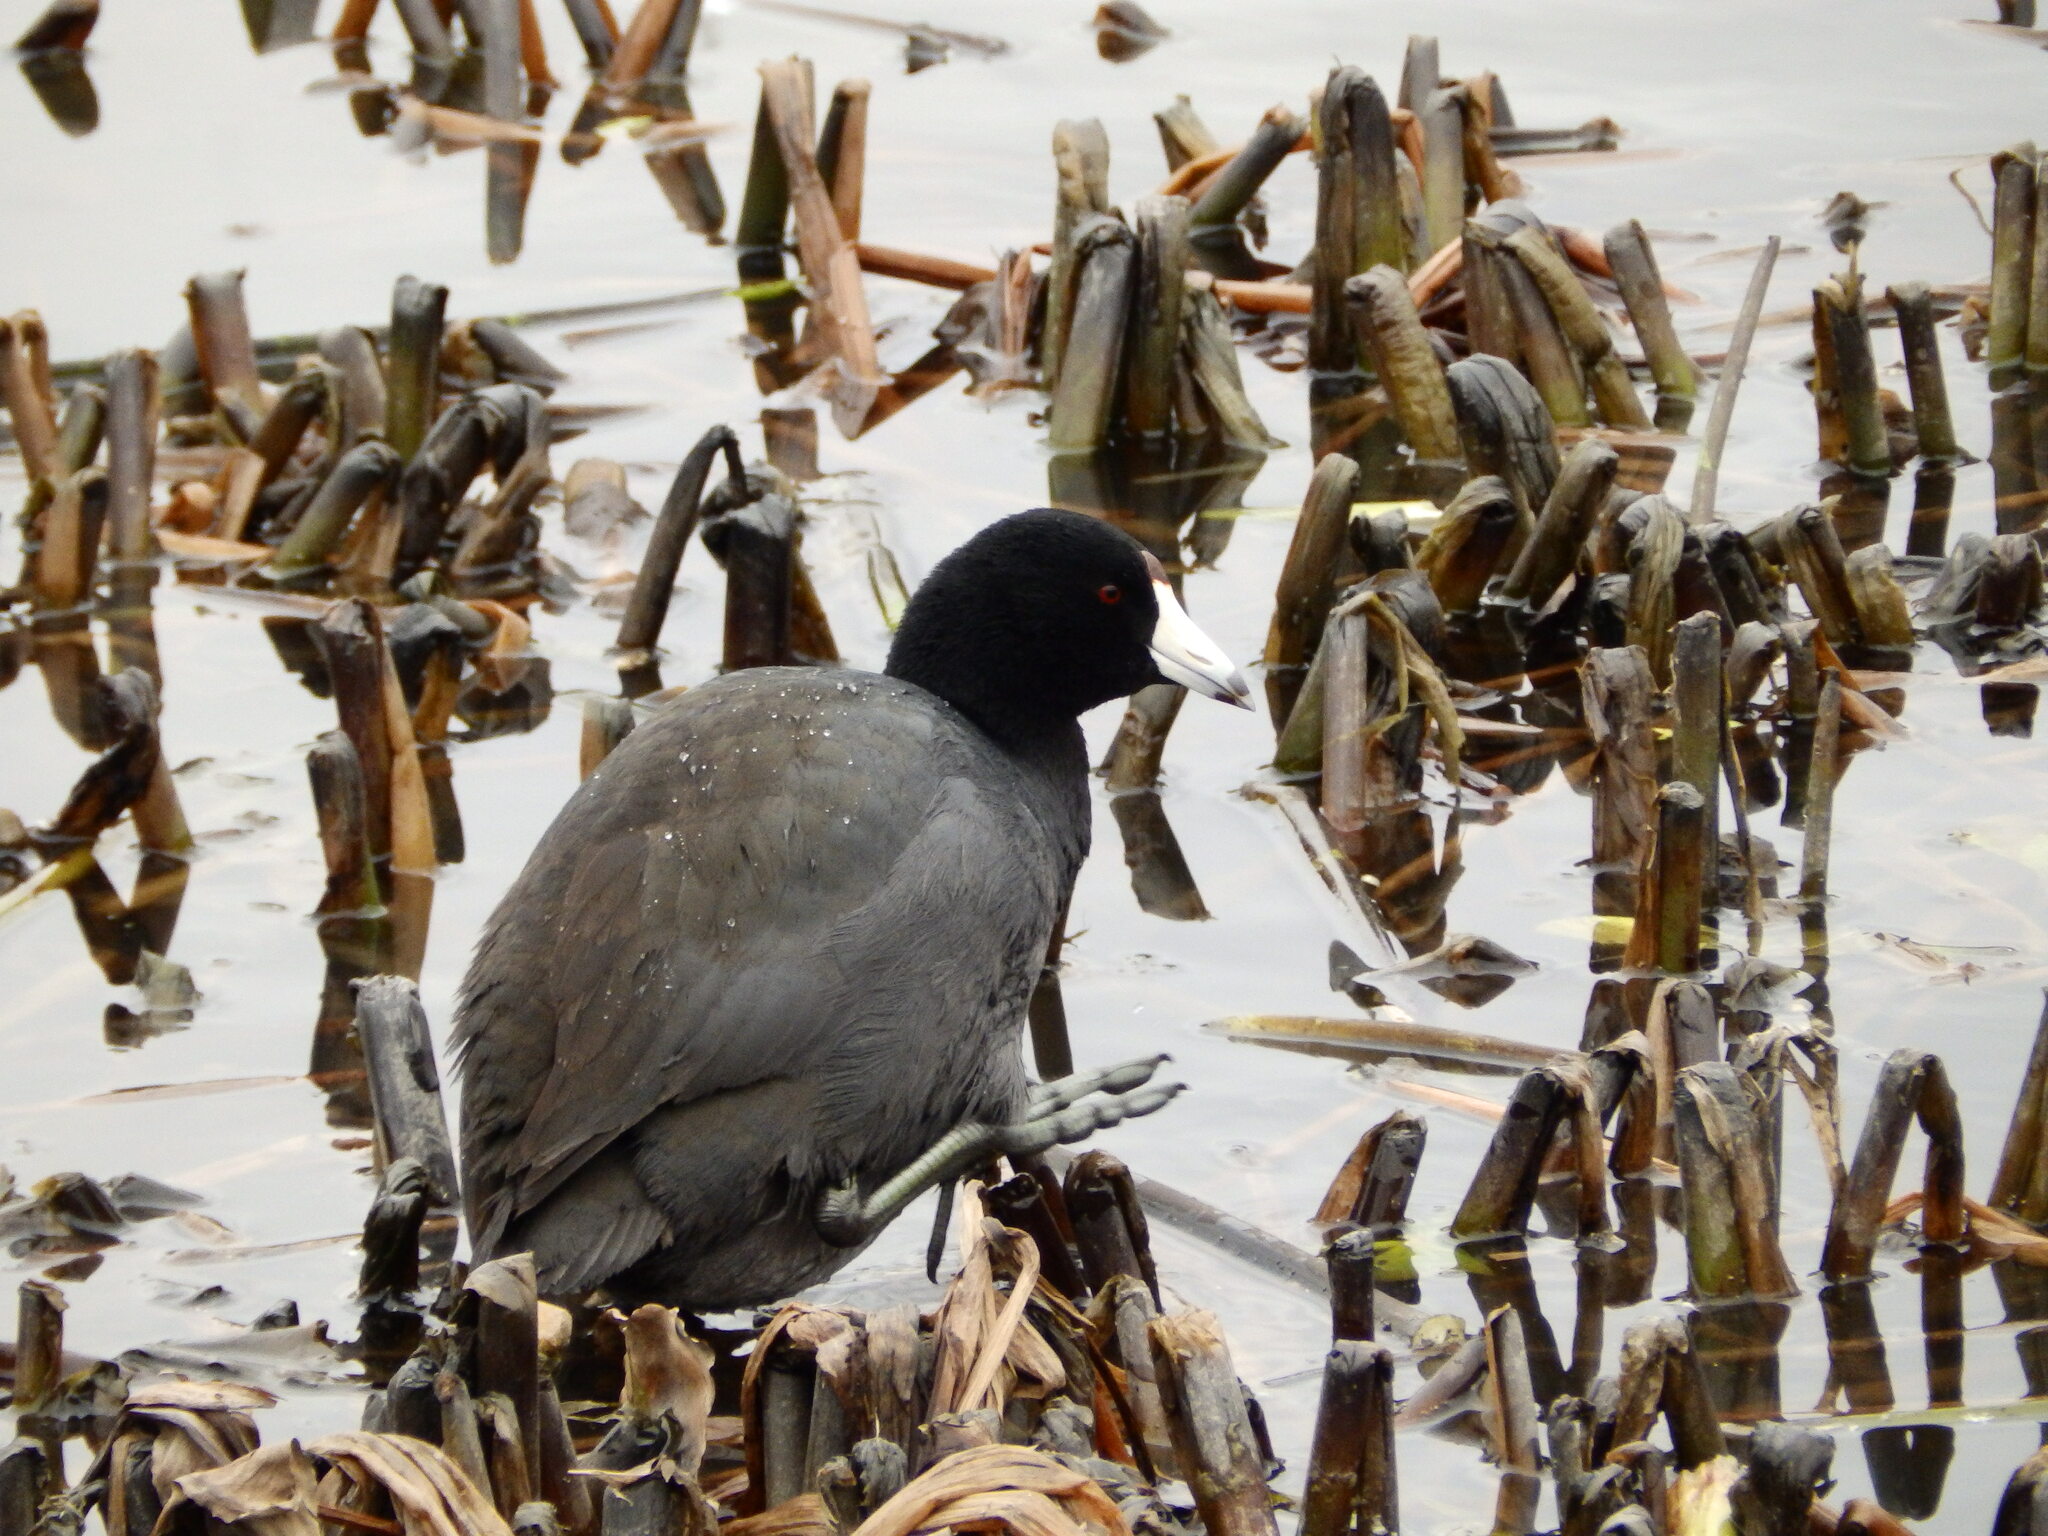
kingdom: Animalia
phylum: Chordata
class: Aves
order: Gruiformes
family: Rallidae
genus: Fulica
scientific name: Fulica americana
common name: American coot
